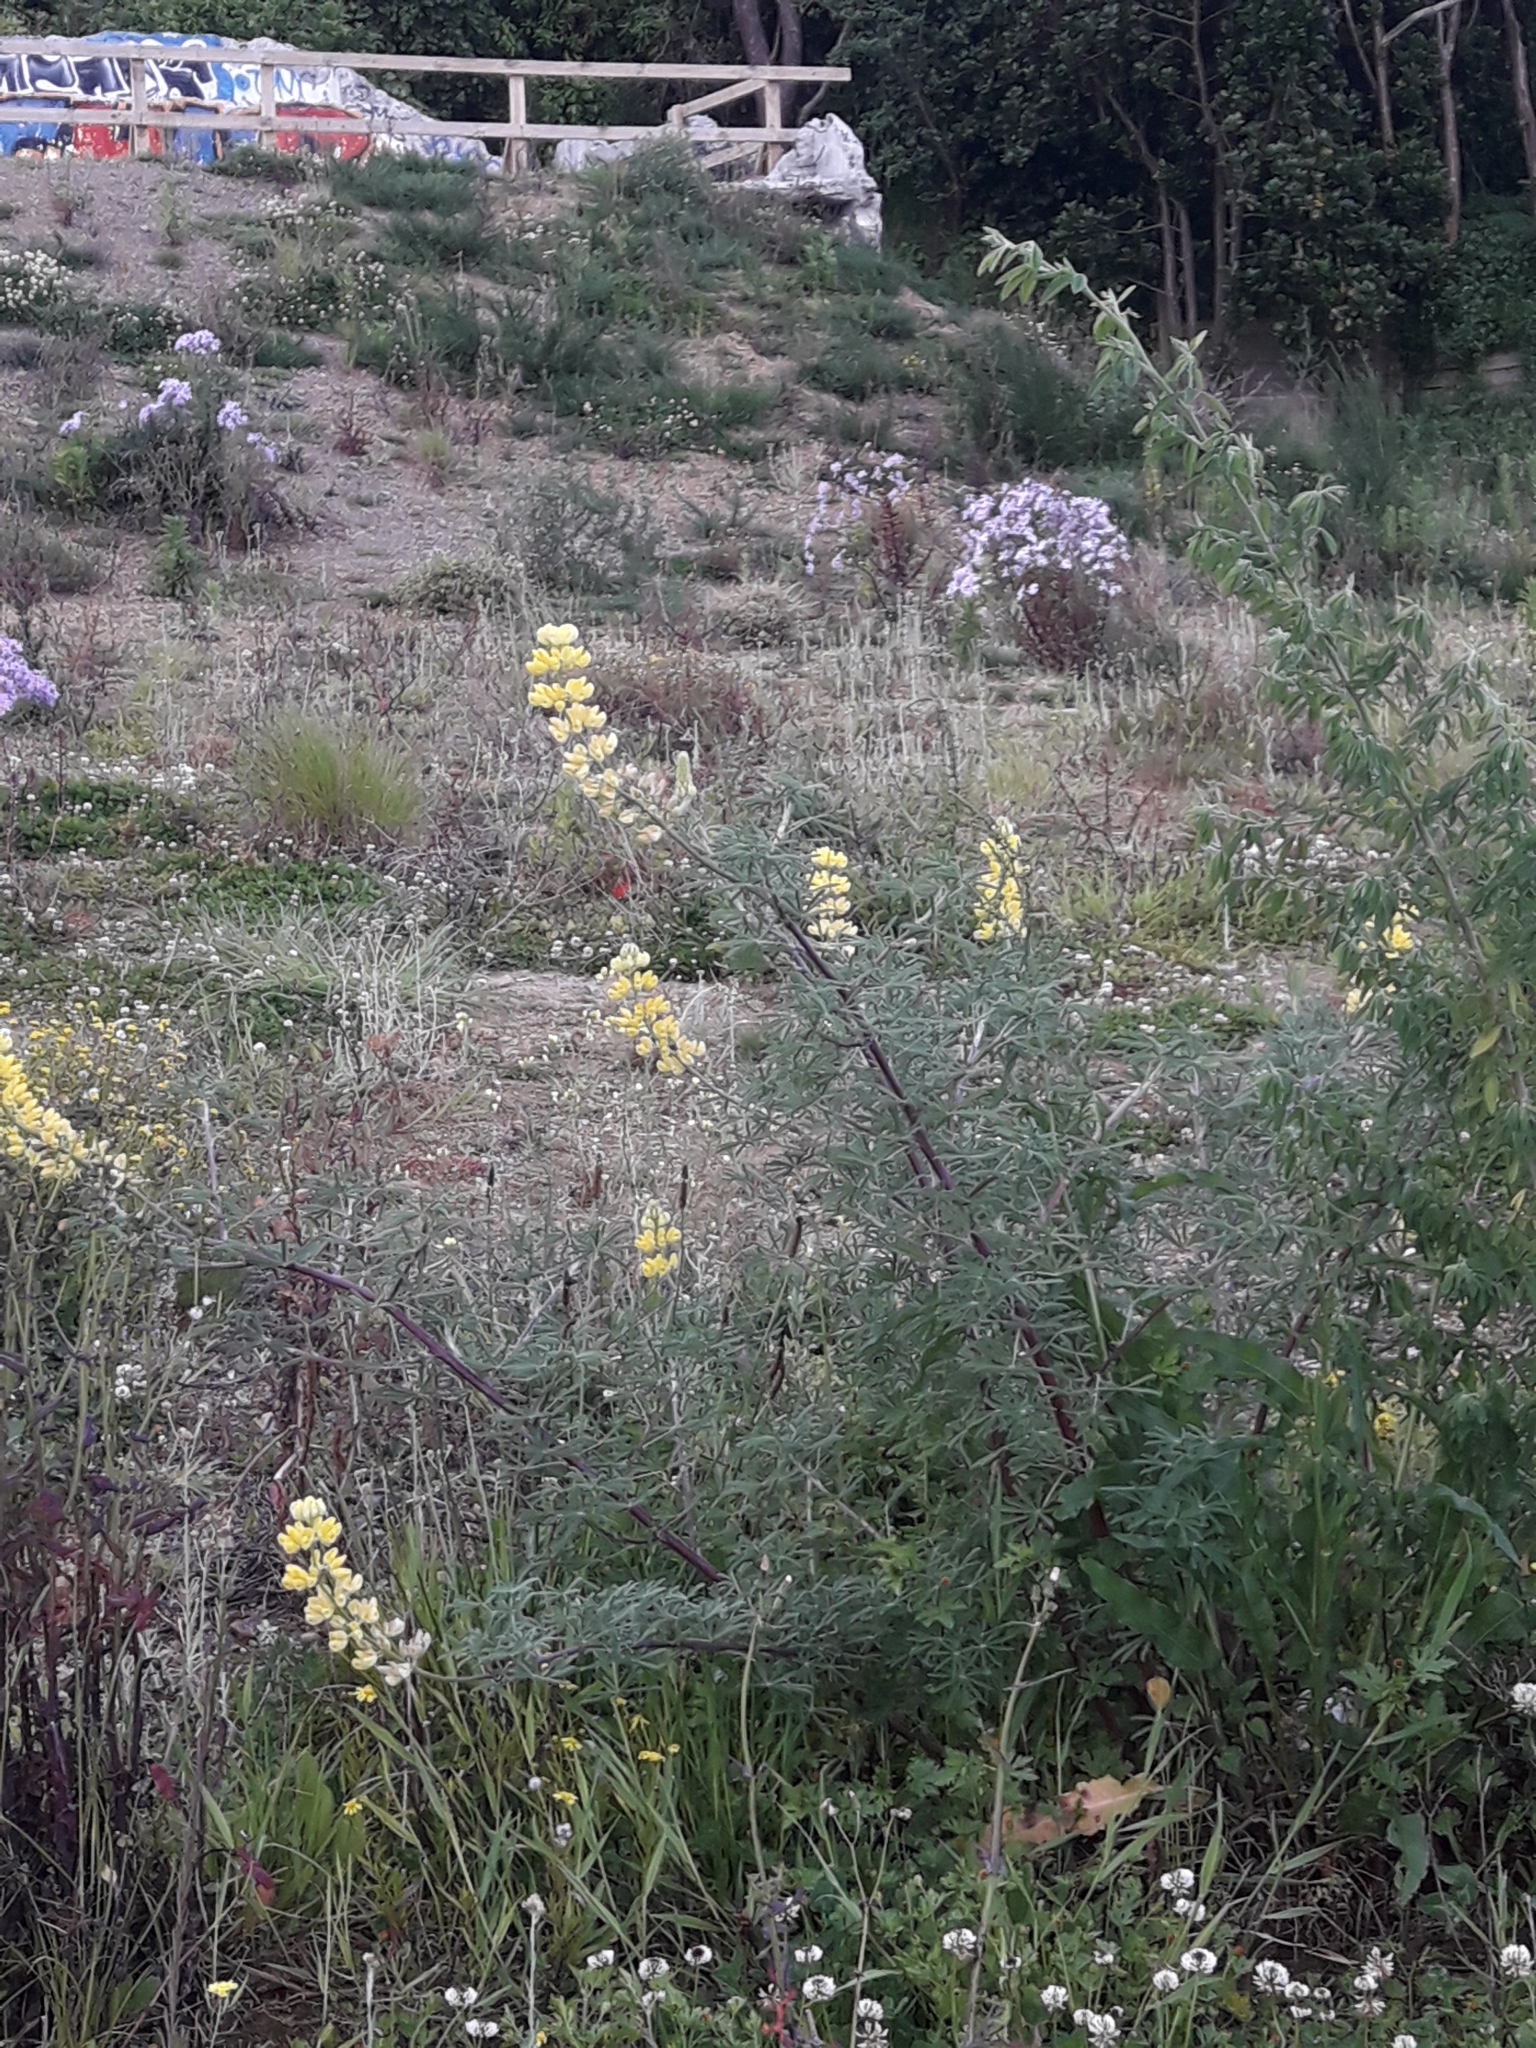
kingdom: Plantae
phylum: Tracheophyta
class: Magnoliopsida
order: Fabales
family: Fabaceae
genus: Lupinus
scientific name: Lupinus arboreus
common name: Yellow bush lupine
